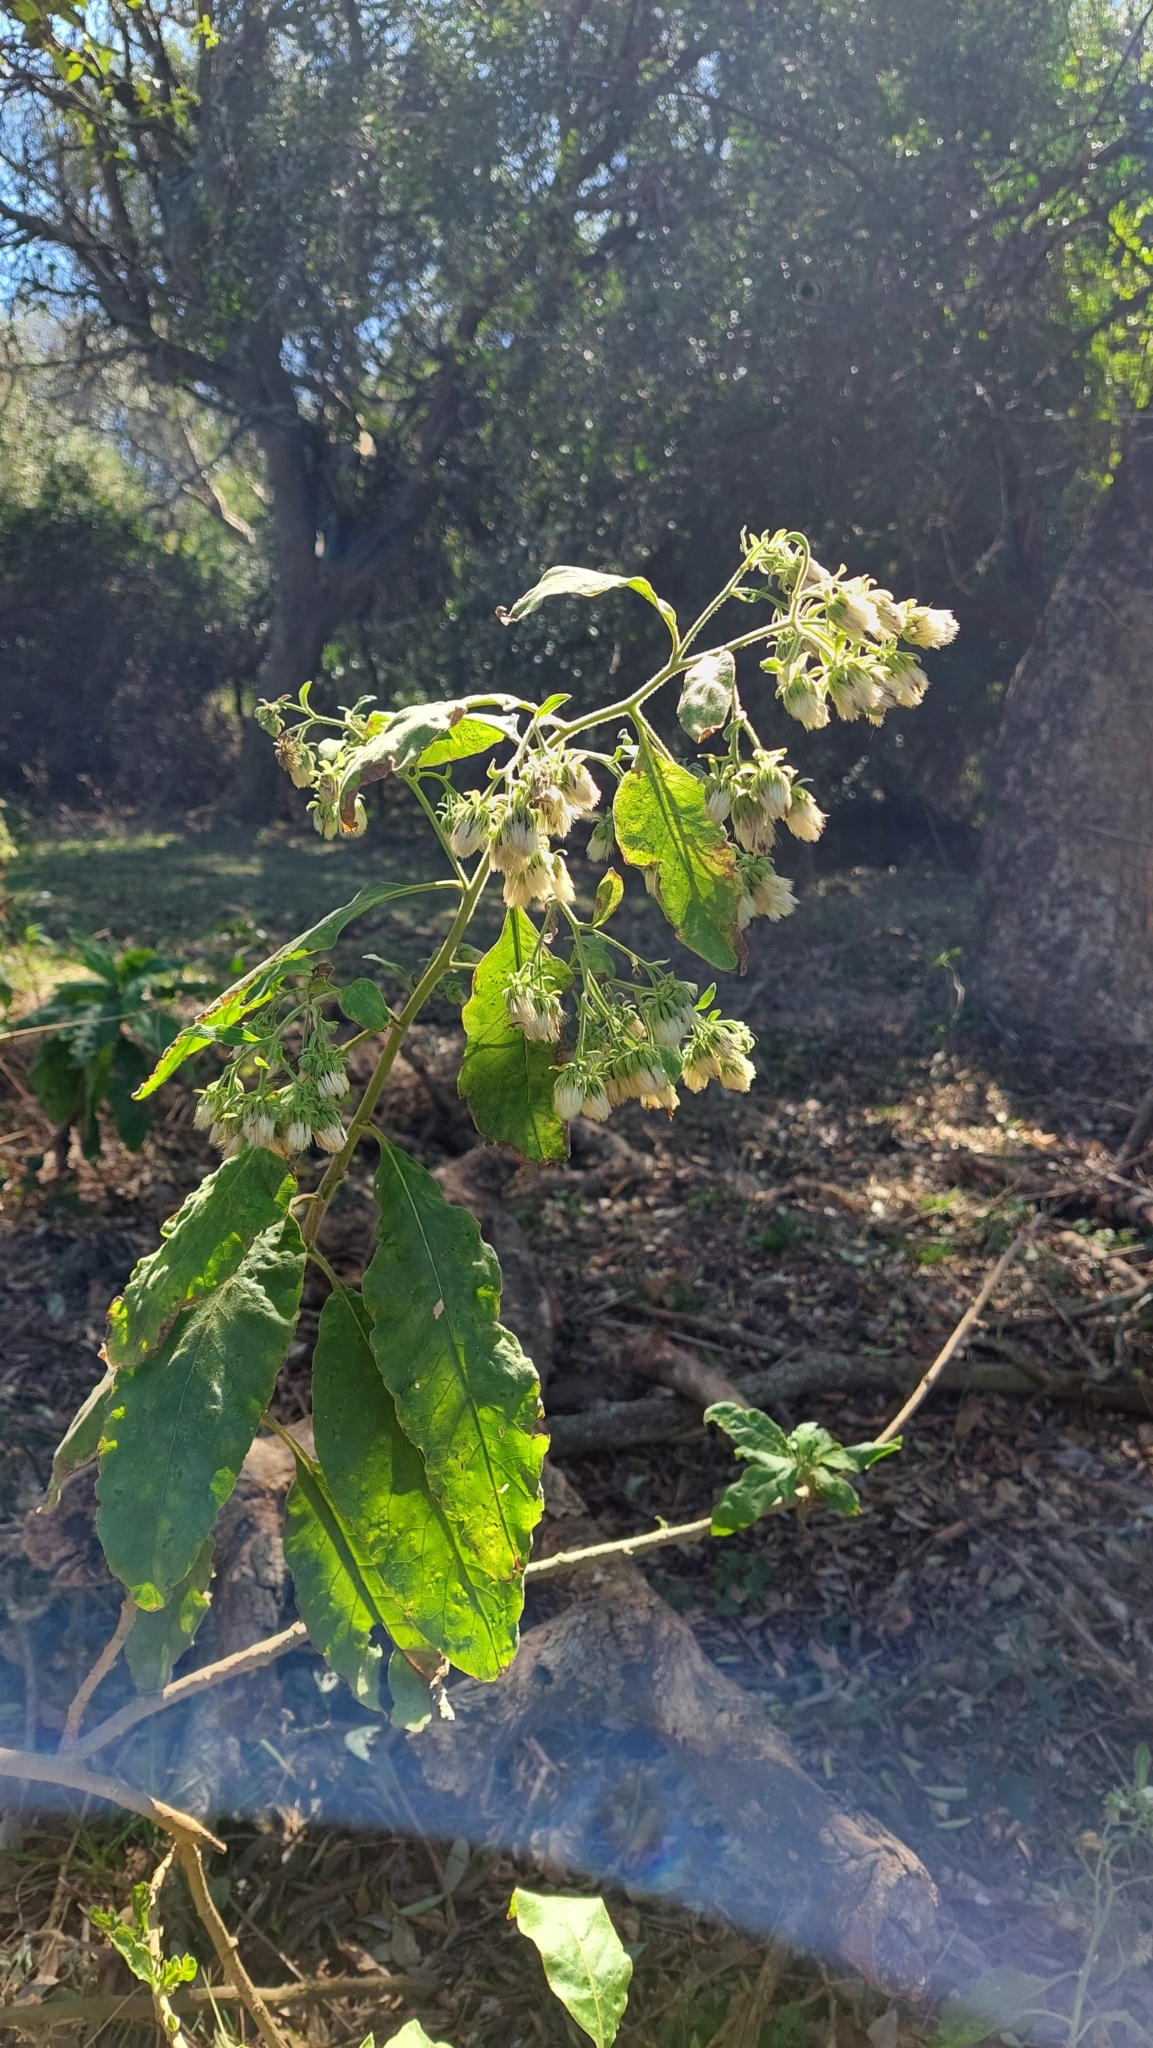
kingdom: Plantae
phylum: Tracheophyta
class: Magnoliopsida
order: Asterales
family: Asteraceae
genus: Trixis
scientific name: Trixis praestans
